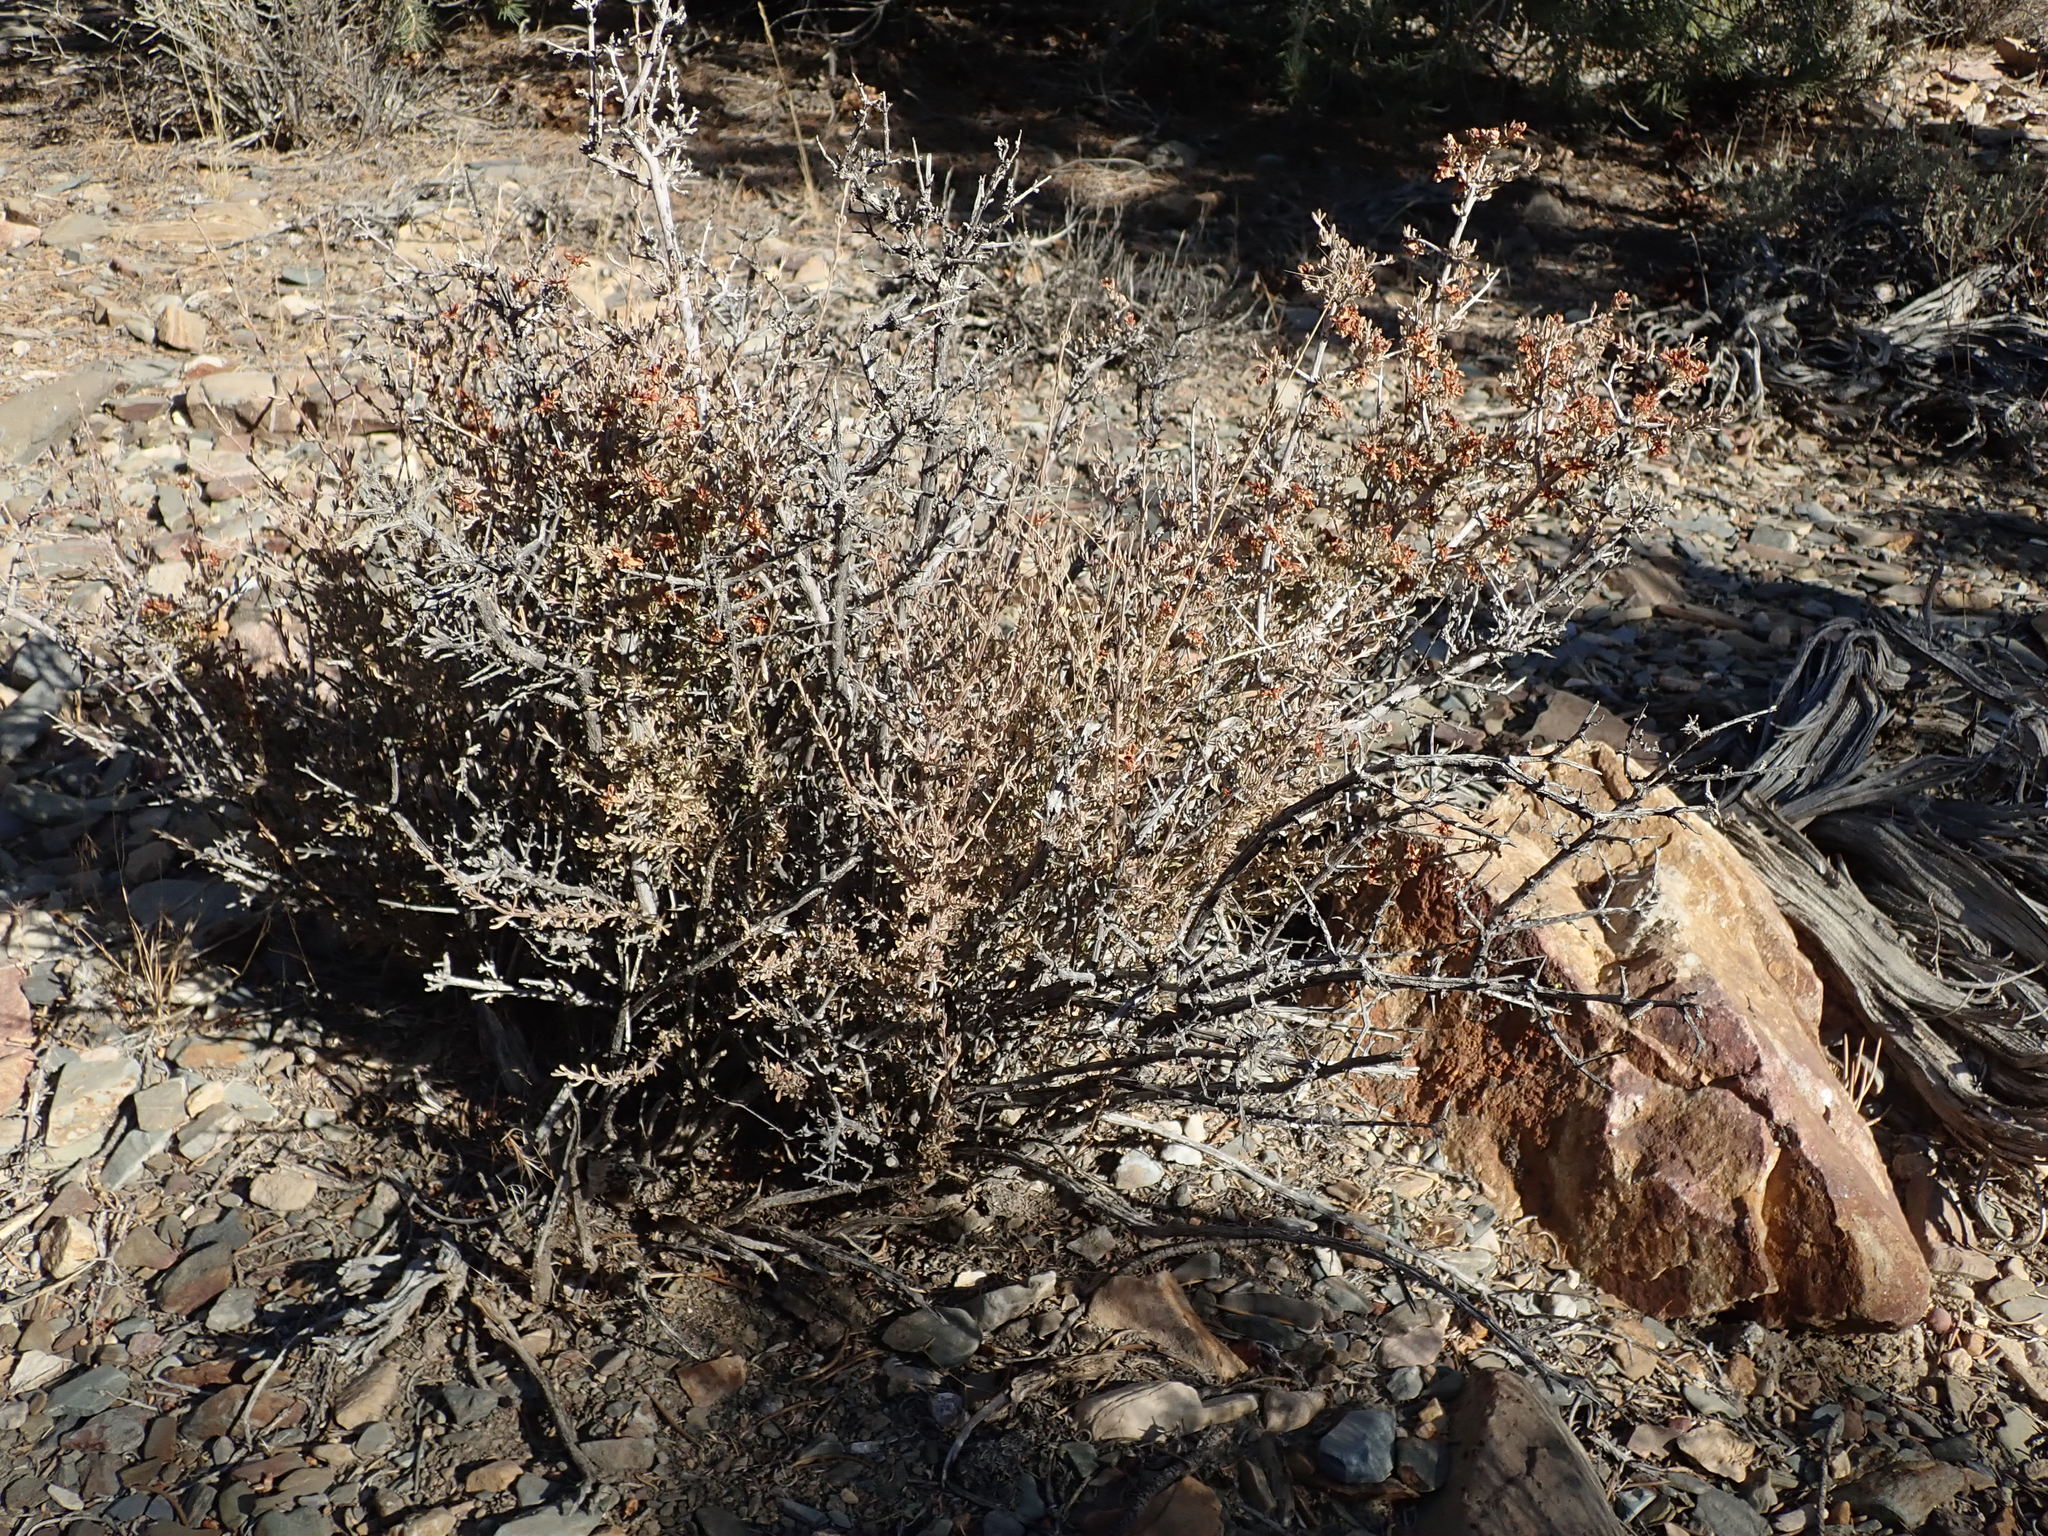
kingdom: Plantae
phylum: Tracheophyta
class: Magnoliopsida
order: Rosales
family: Rosaceae
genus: Coleogyne
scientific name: Coleogyne ramosissima
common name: Blackbrush
